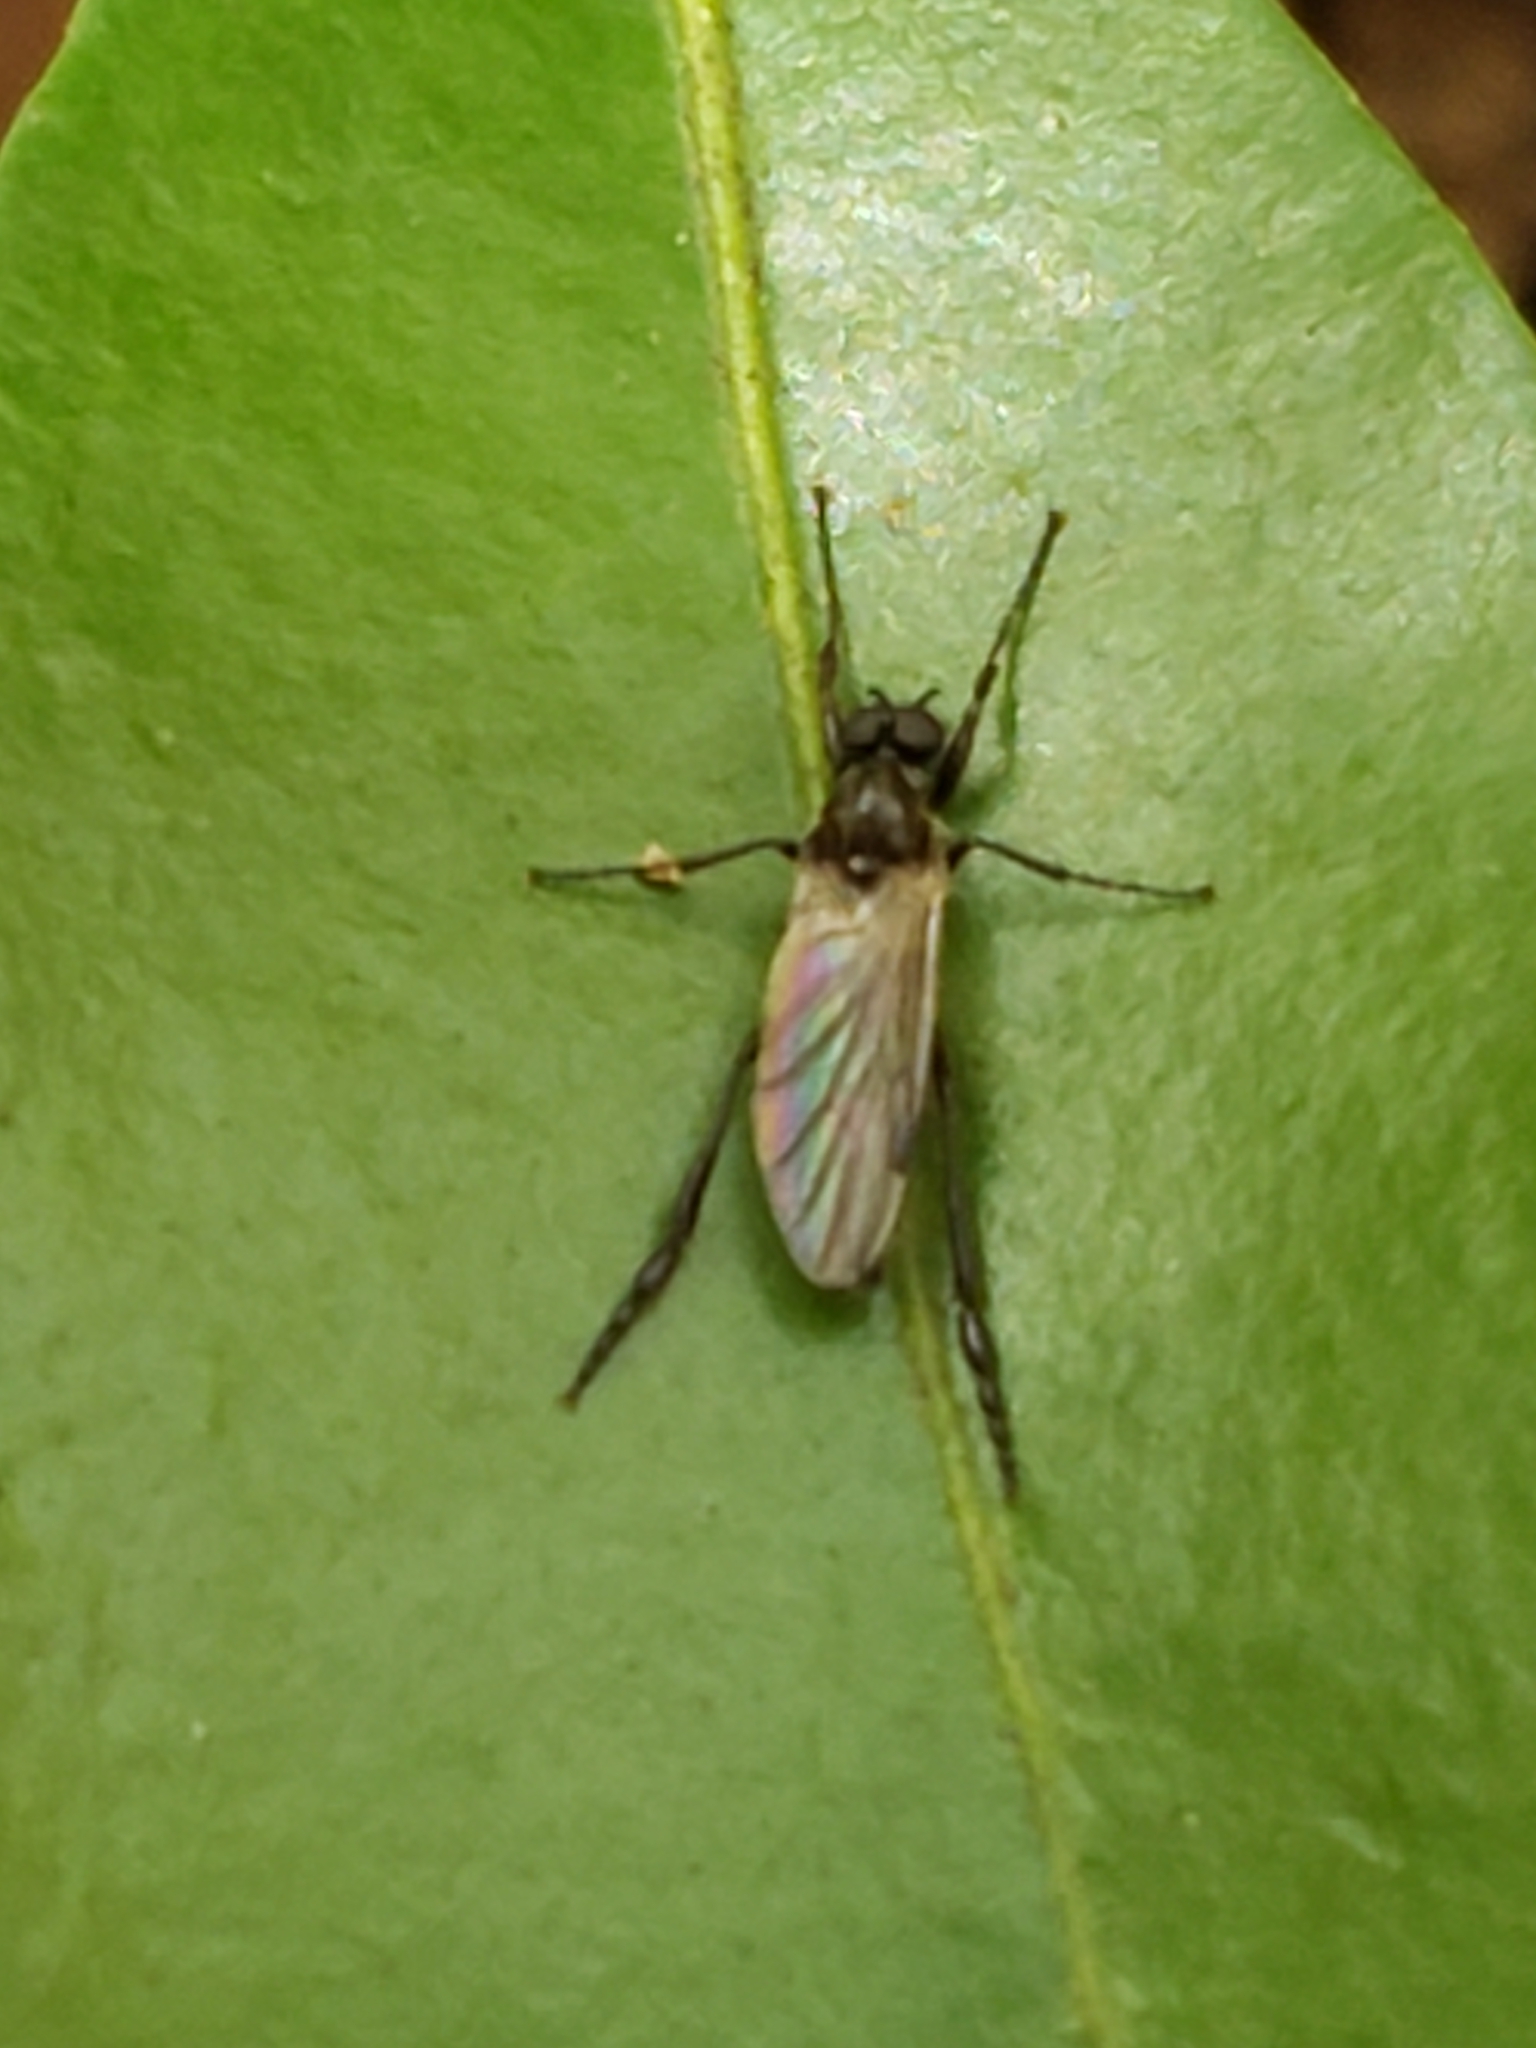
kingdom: Animalia
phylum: Arthropoda
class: Insecta
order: Diptera
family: Bibionidae
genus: Bibio
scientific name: Bibio longipes
